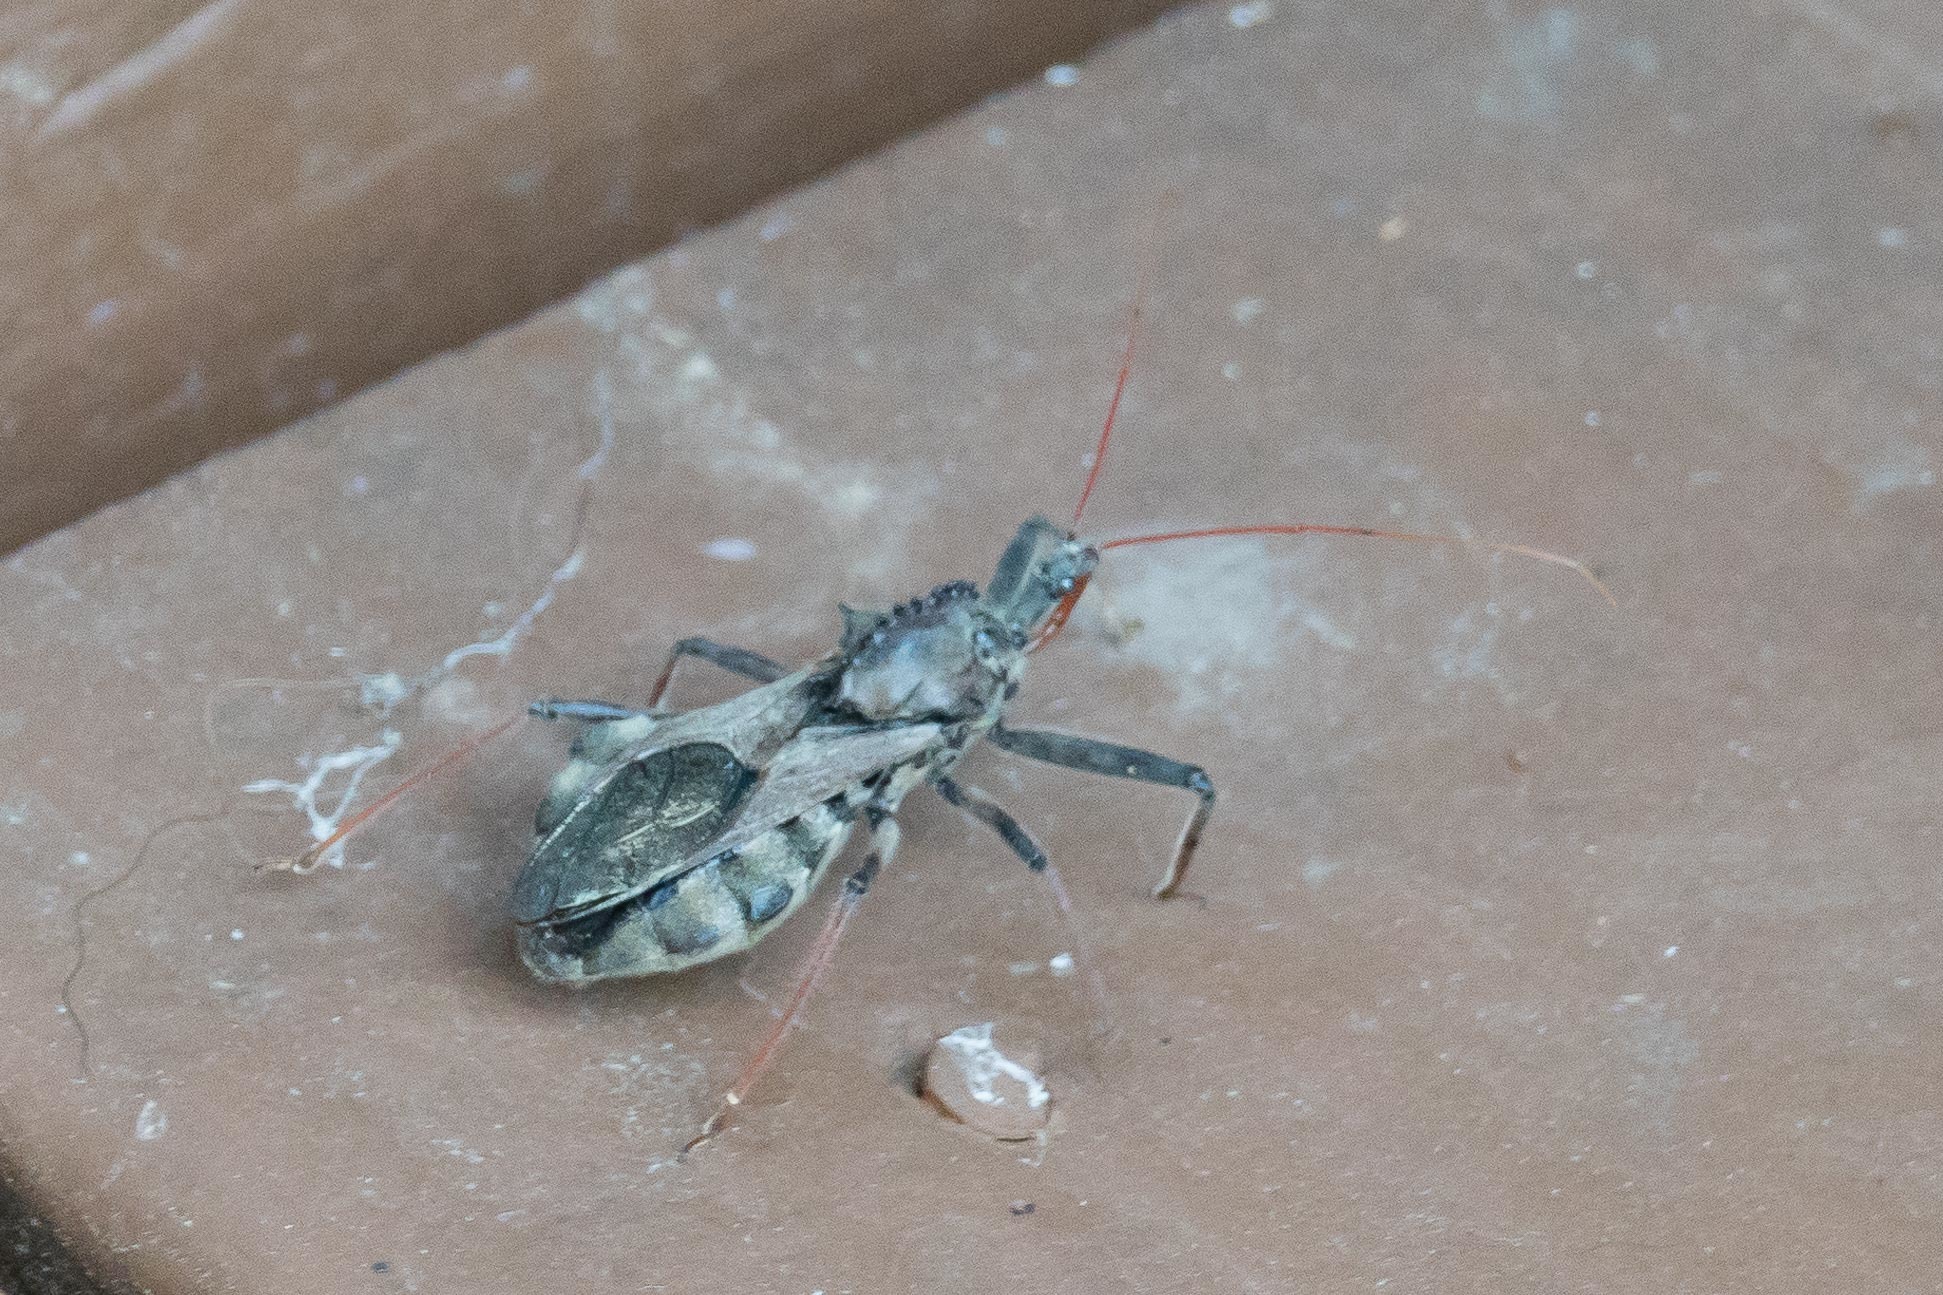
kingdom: Animalia
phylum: Arthropoda
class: Insecta
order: Hemiptera
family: Reduviidae
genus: Arilus
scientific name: Arilus cristatus
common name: North american wheel bug
